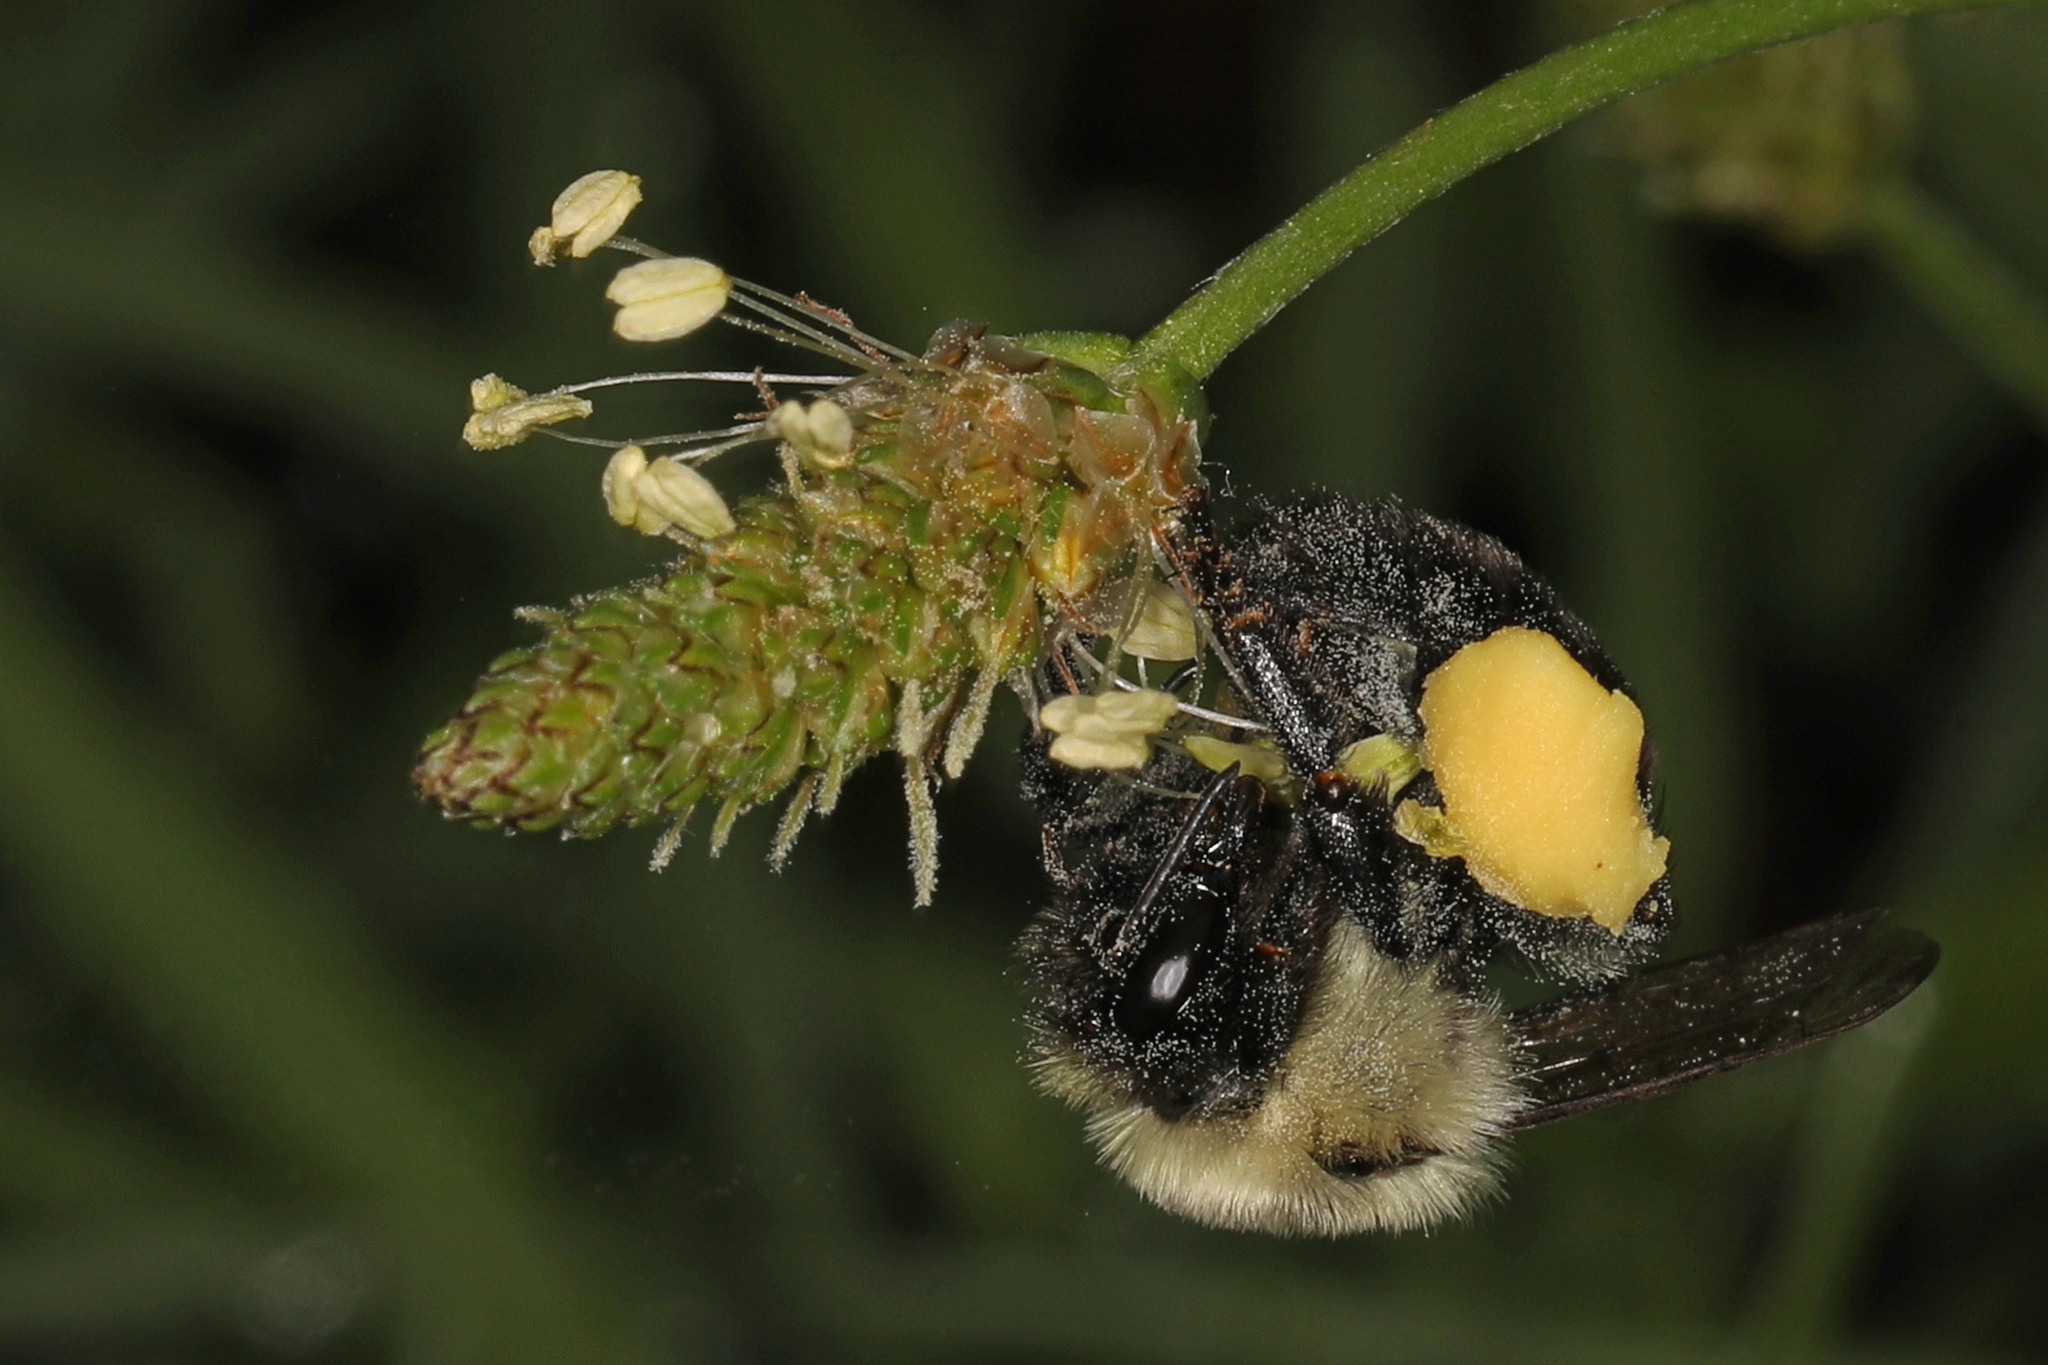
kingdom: Animalia
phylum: Arthropoda
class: Insecta
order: Hymenoptera
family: Apidae
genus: Bombus
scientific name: Bombus impatiens
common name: Common eastern bumble bee
